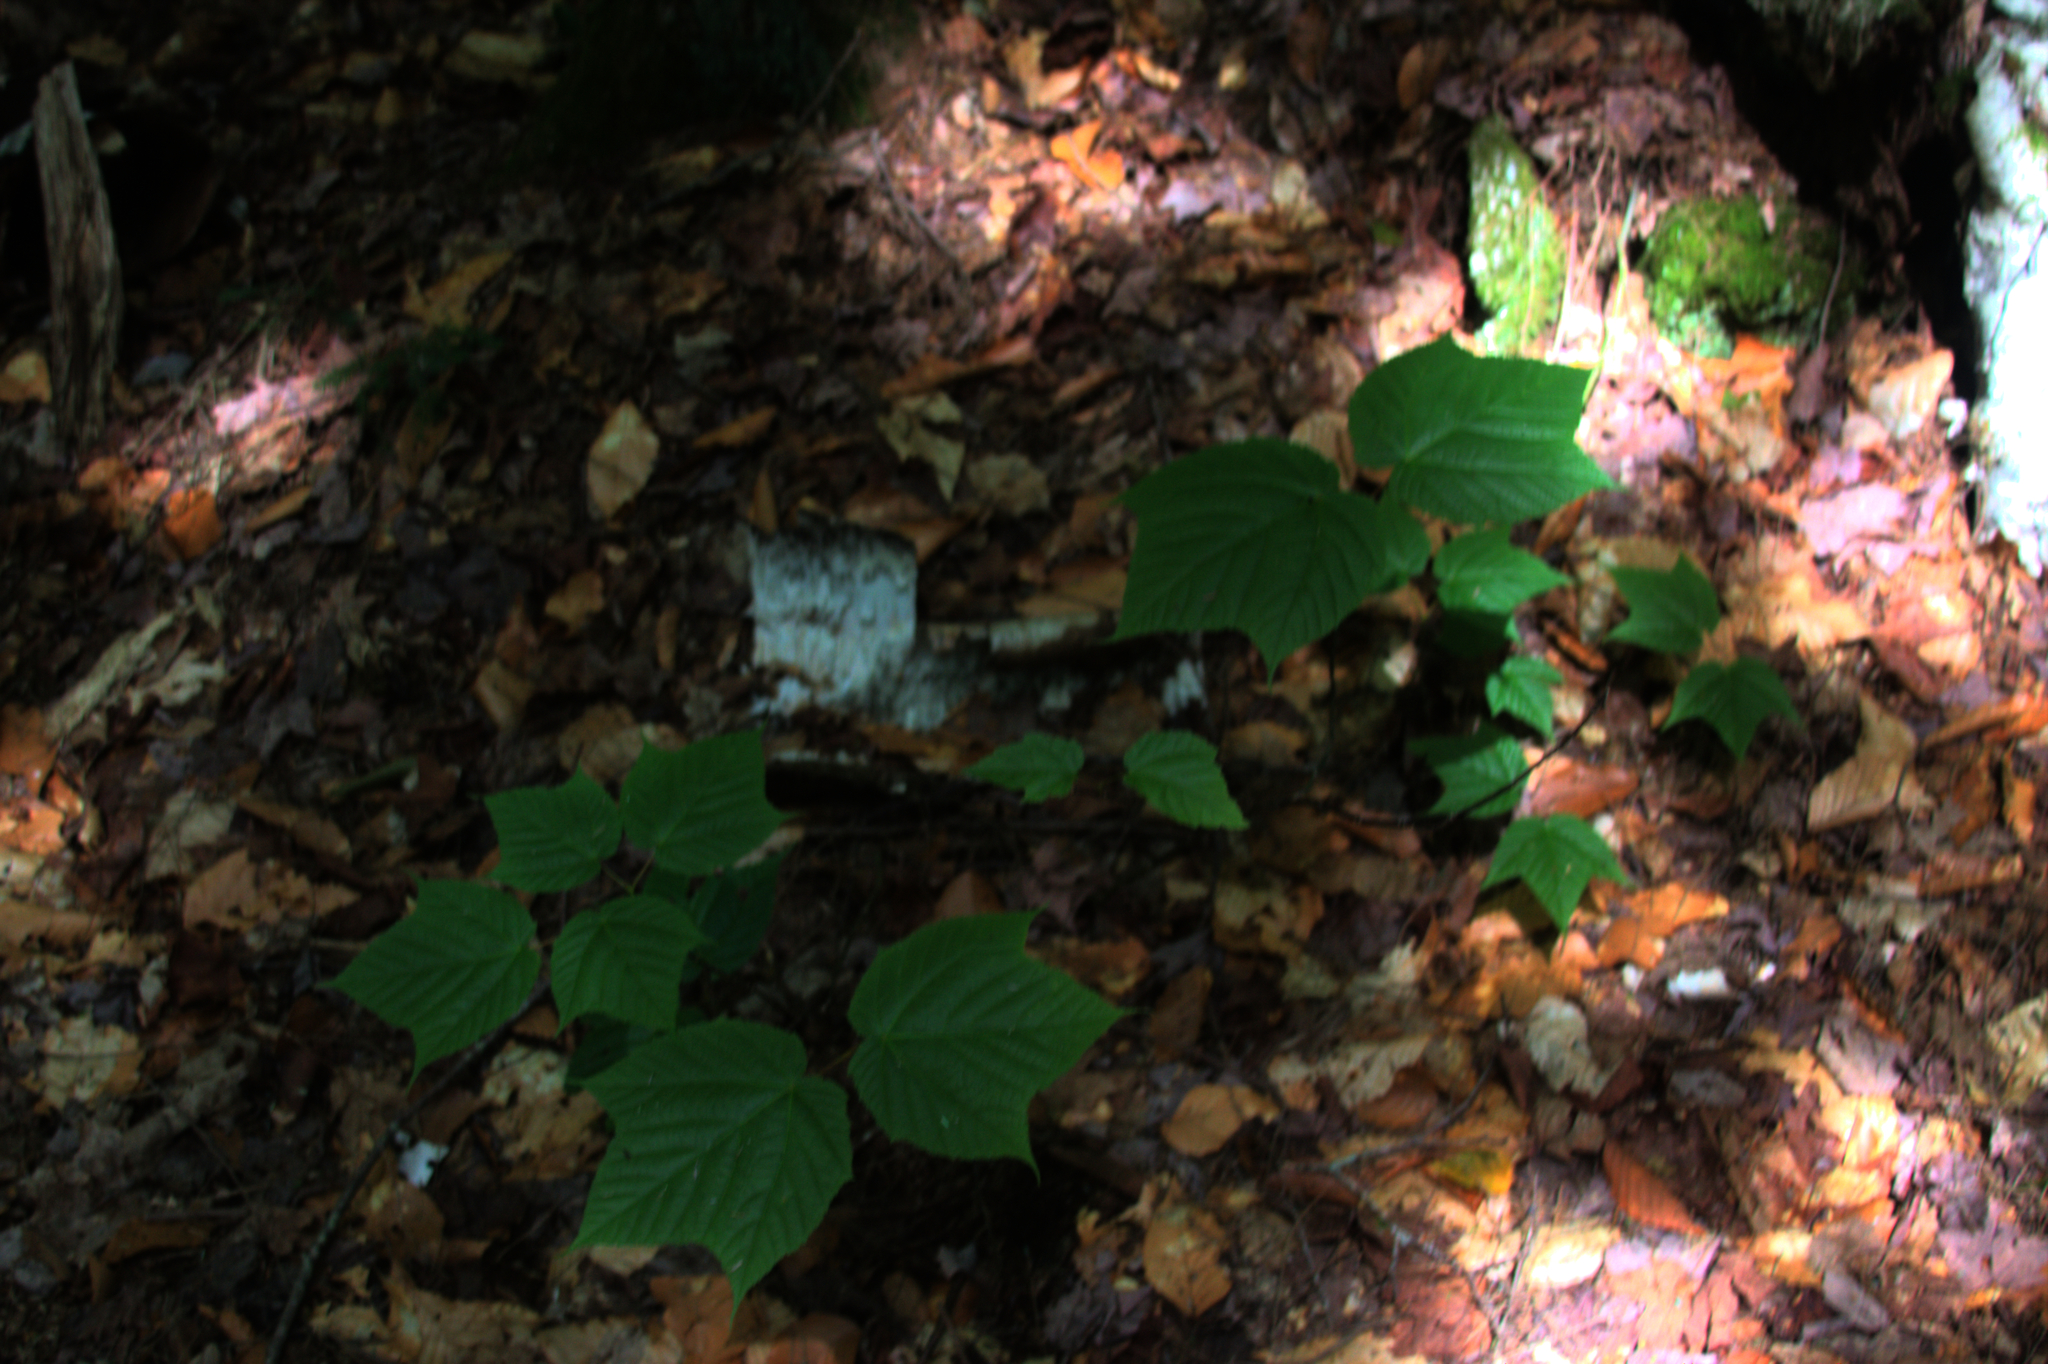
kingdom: Plantae
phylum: Tracheophyta
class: Magnoliopsida
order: Sapindales
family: Sapindaceae
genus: Acer
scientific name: Acer pensylvanicum
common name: Moosewood
